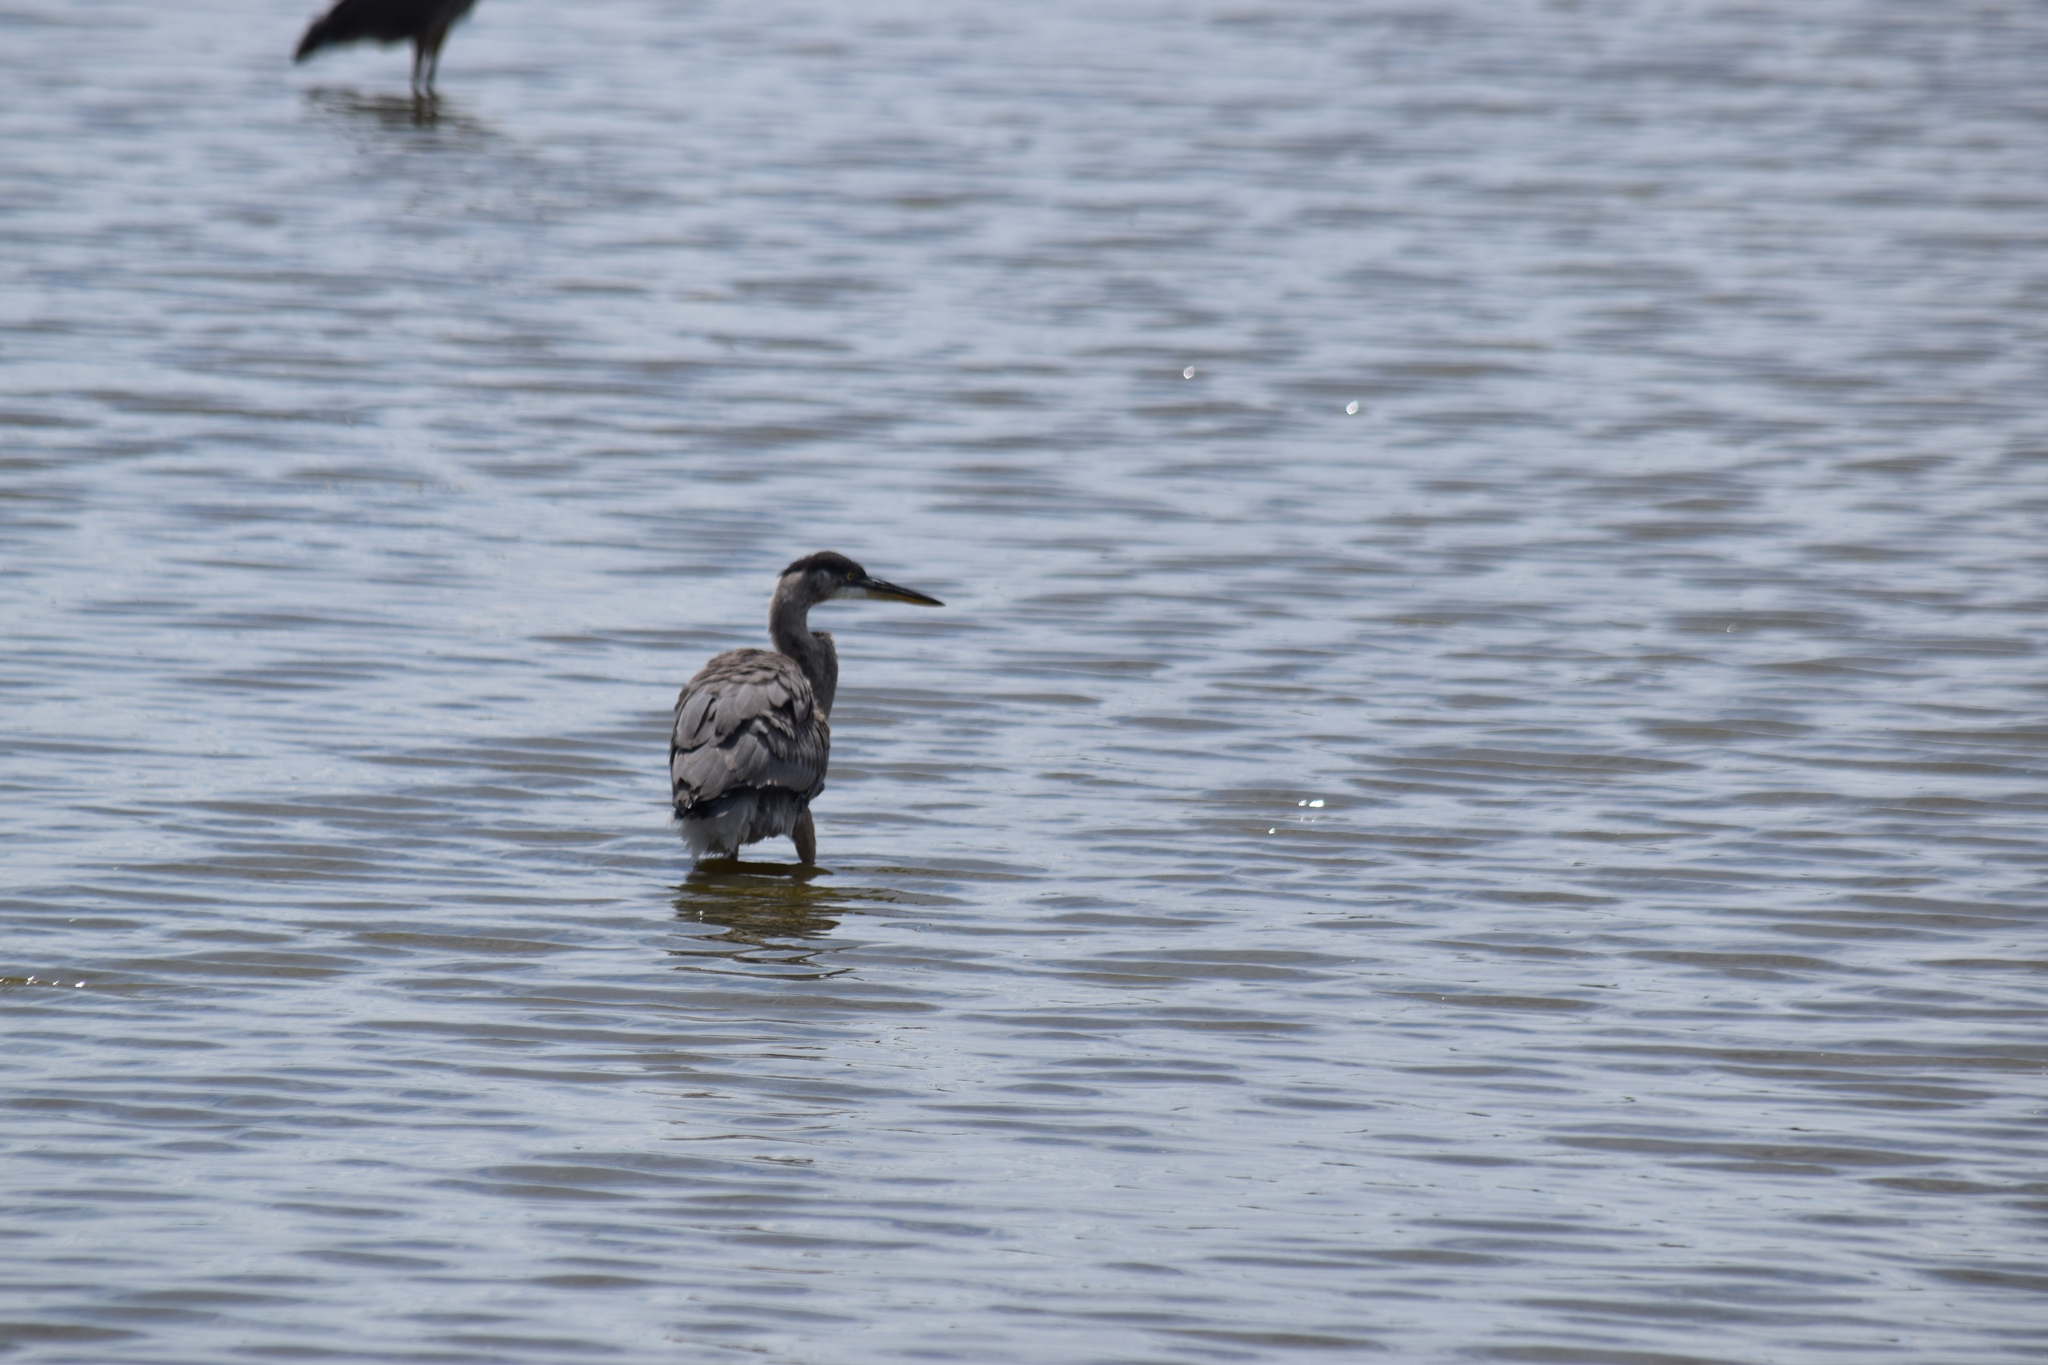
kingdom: Animalia
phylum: Chordata
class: Aves
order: Pelecaniformes
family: Ardeidae
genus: Ardea
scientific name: Ardea herodias
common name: Great blue heron
